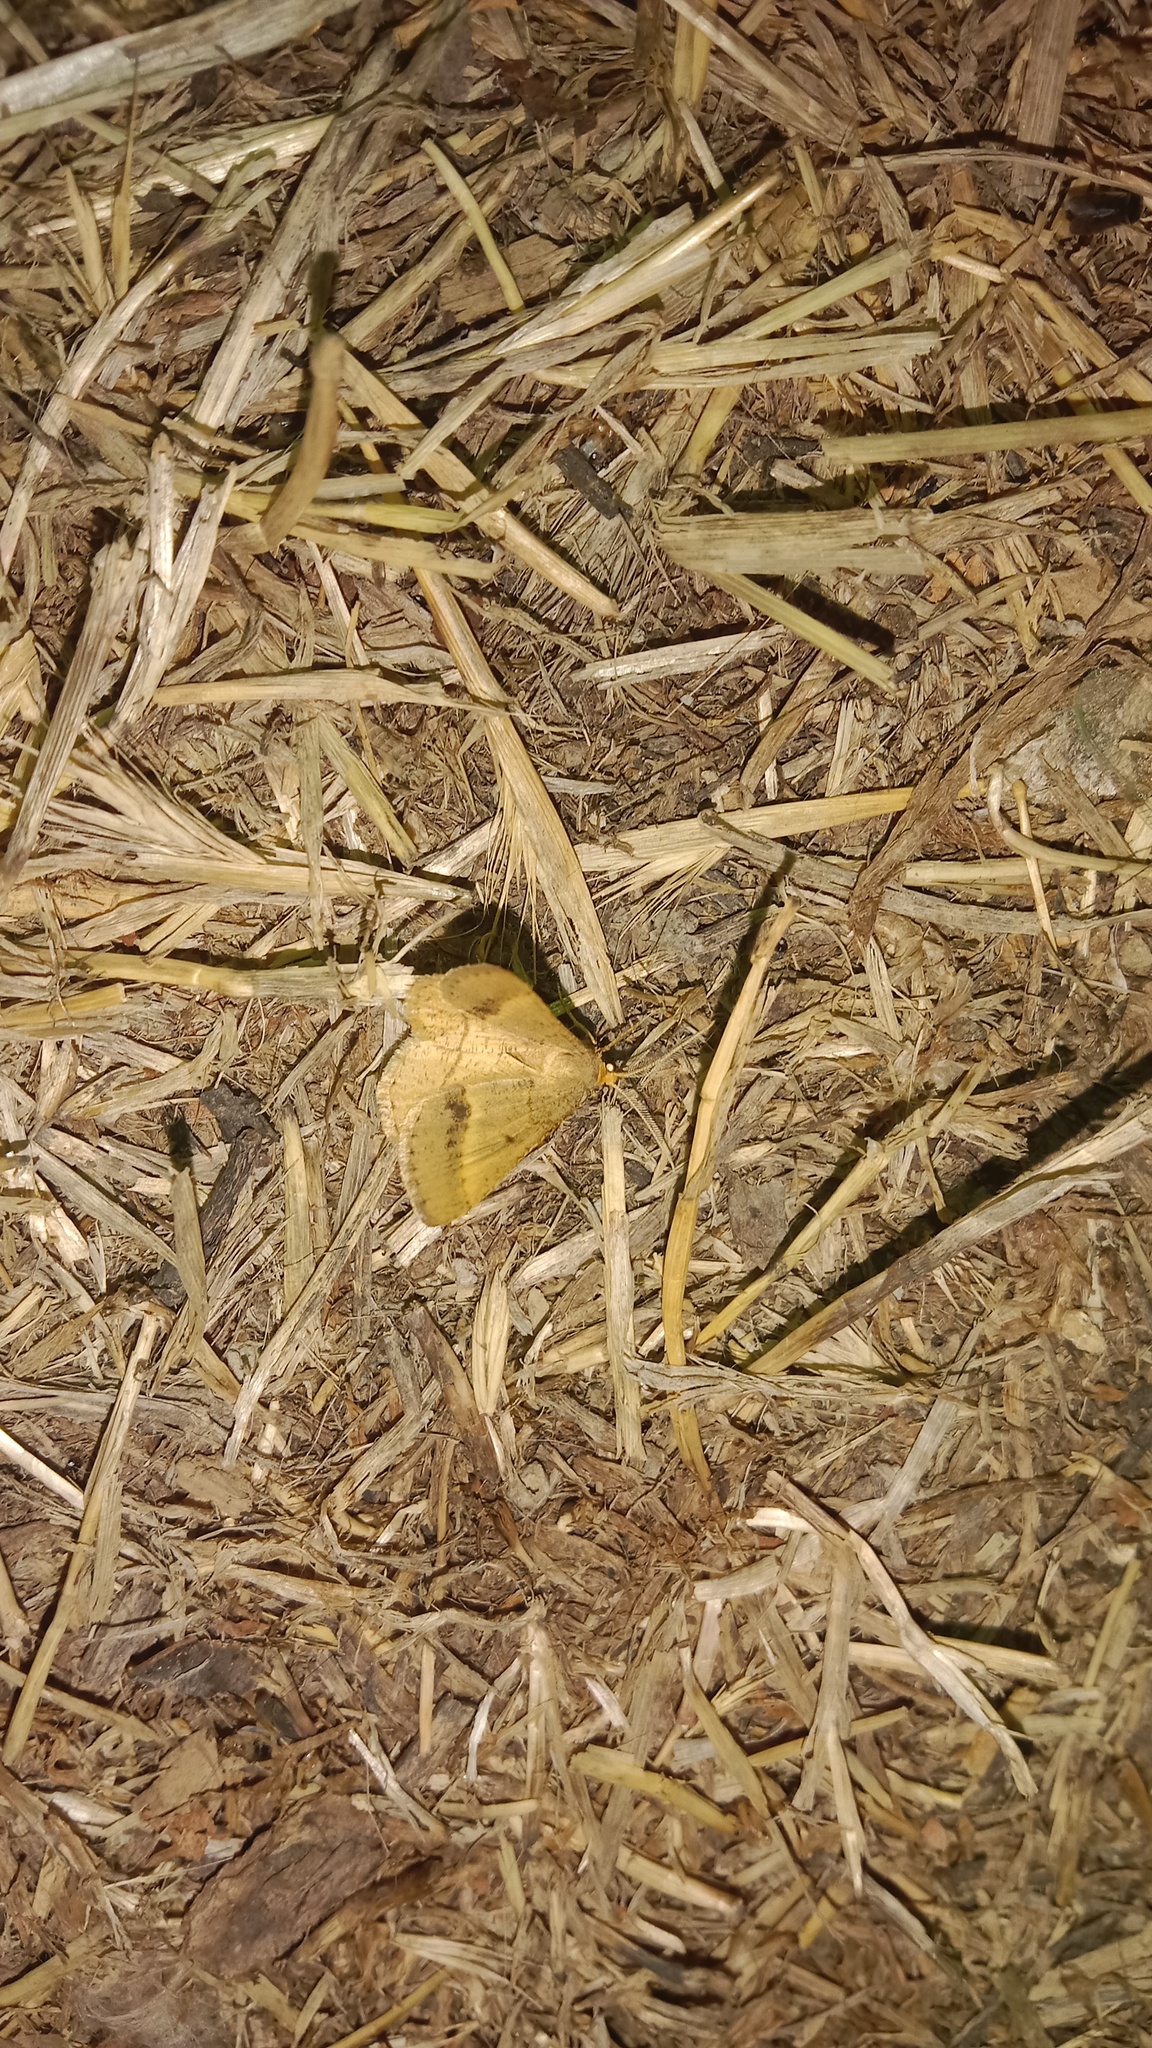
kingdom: Animalia
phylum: Arthropoda
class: Insecta
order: Lepidoptera
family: Geometridae
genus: Tephrina
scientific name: Tephrina arenacearia
